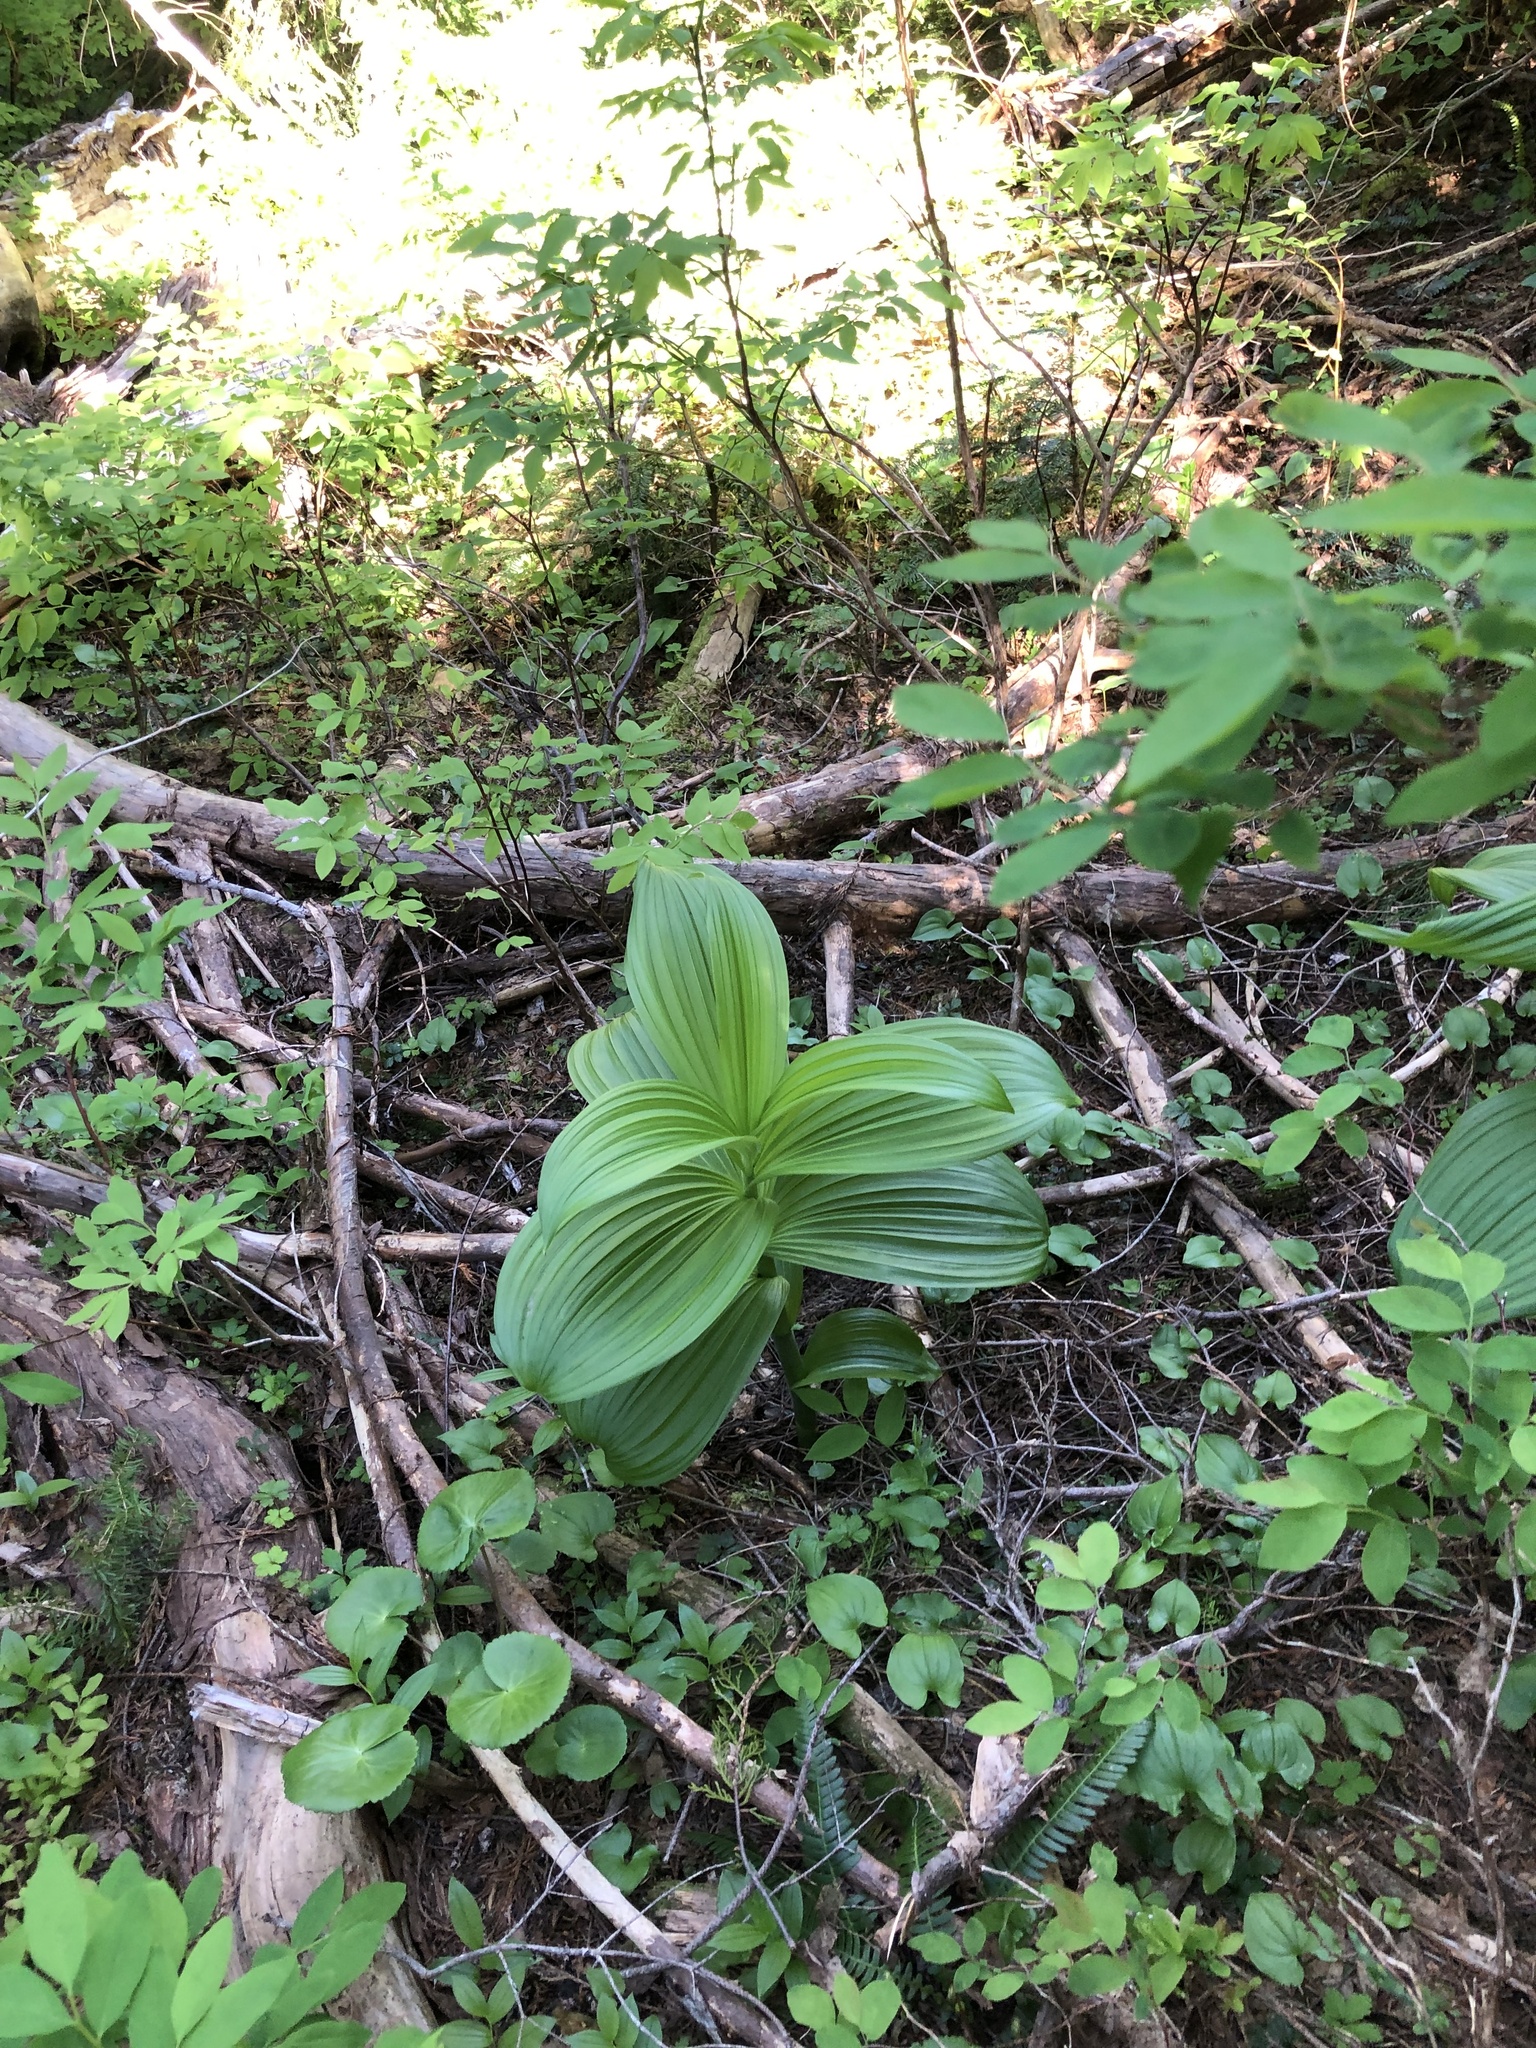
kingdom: Plantae
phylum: Tracheophyta
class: Liliopsida
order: Liliales
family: Melanthiaceae
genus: Veratrum
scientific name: Veratrum viride
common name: American false hellebore
